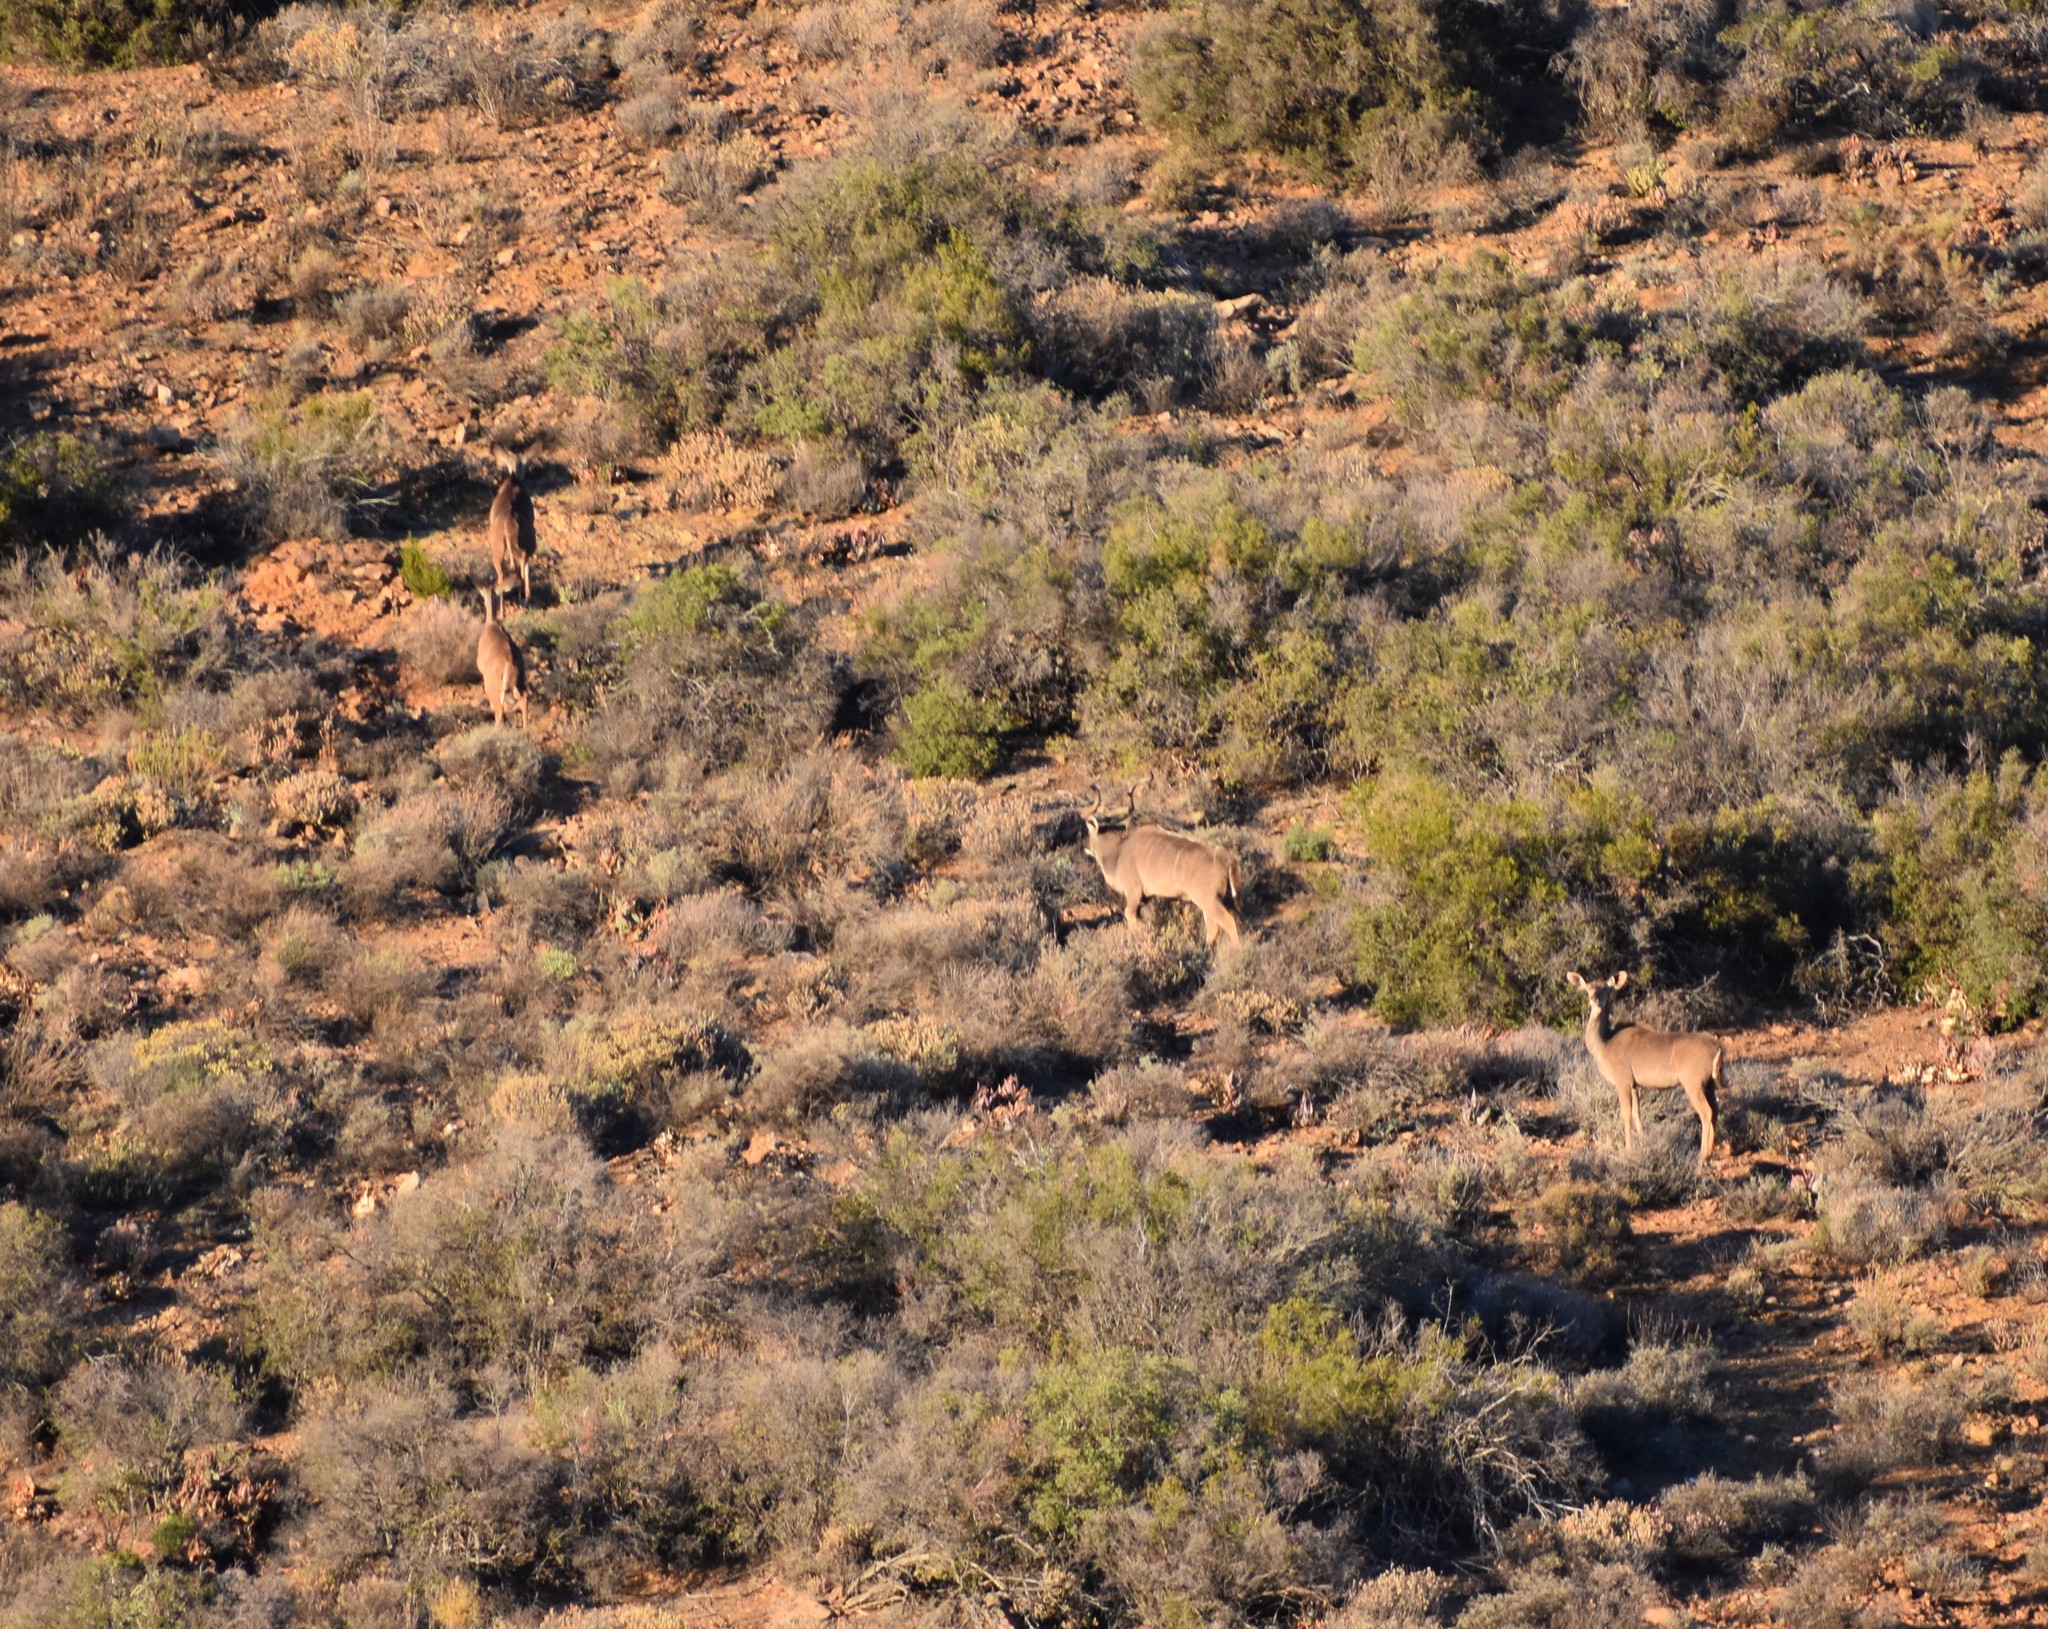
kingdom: Animalia
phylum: Chordata
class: Mammalia
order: Artiodactyla
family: Bovidae
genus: Tragelaphus
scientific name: Tragelaphus strepsiceros
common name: Greater kudu
